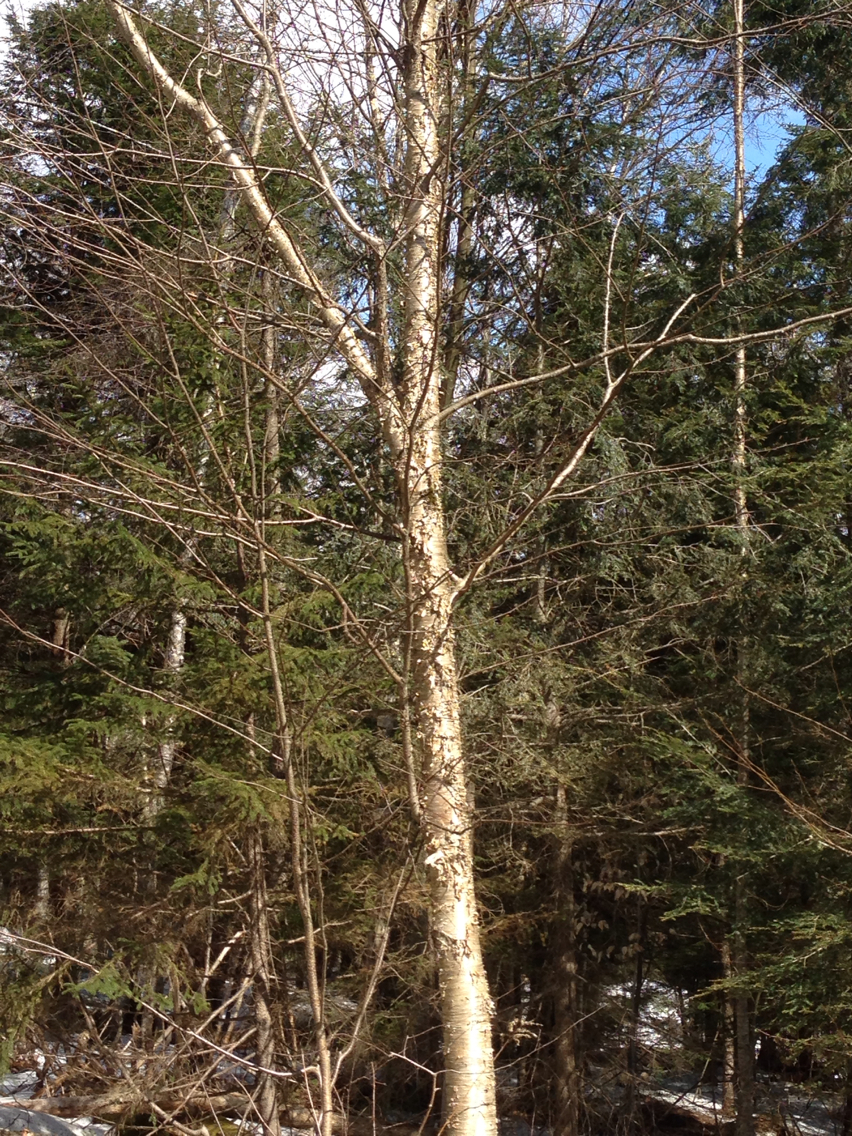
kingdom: Plantae
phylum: Tracheophyta
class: Magnoliopsida
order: Fagales
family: Betulaceae
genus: Betula
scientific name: Betula alleghaniensis
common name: Yellow birch
